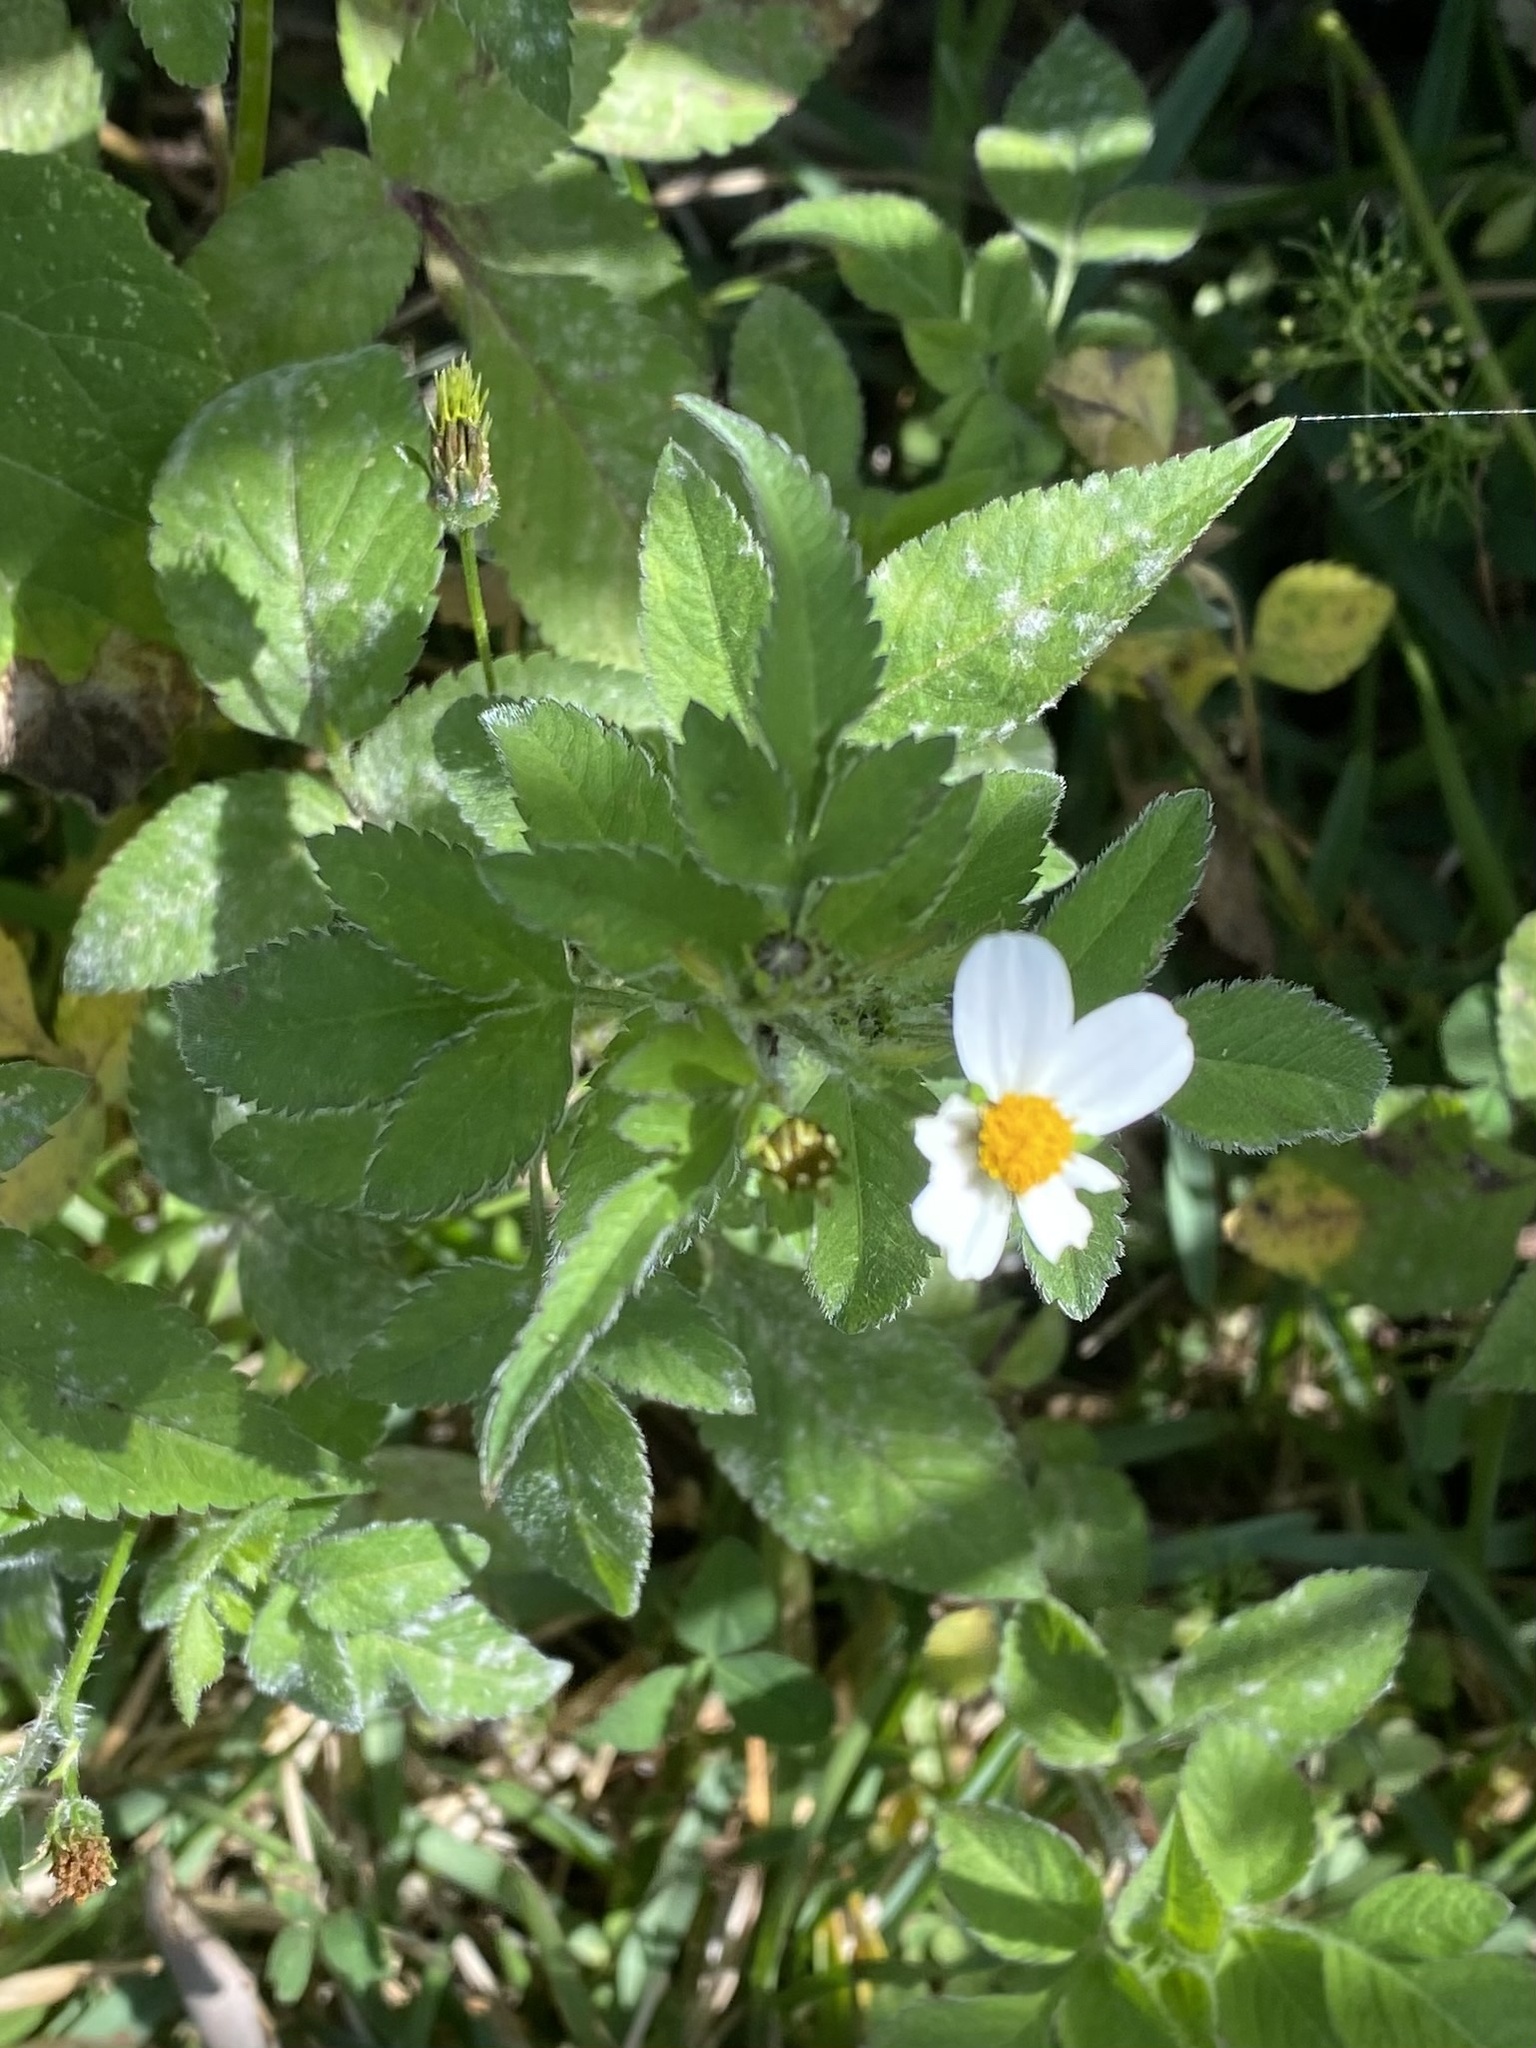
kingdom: Plantae
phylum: Tracheophyta
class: Magnoliopsida
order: Asterales
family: Asteraceae
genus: Bidens
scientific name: Bidens alba
